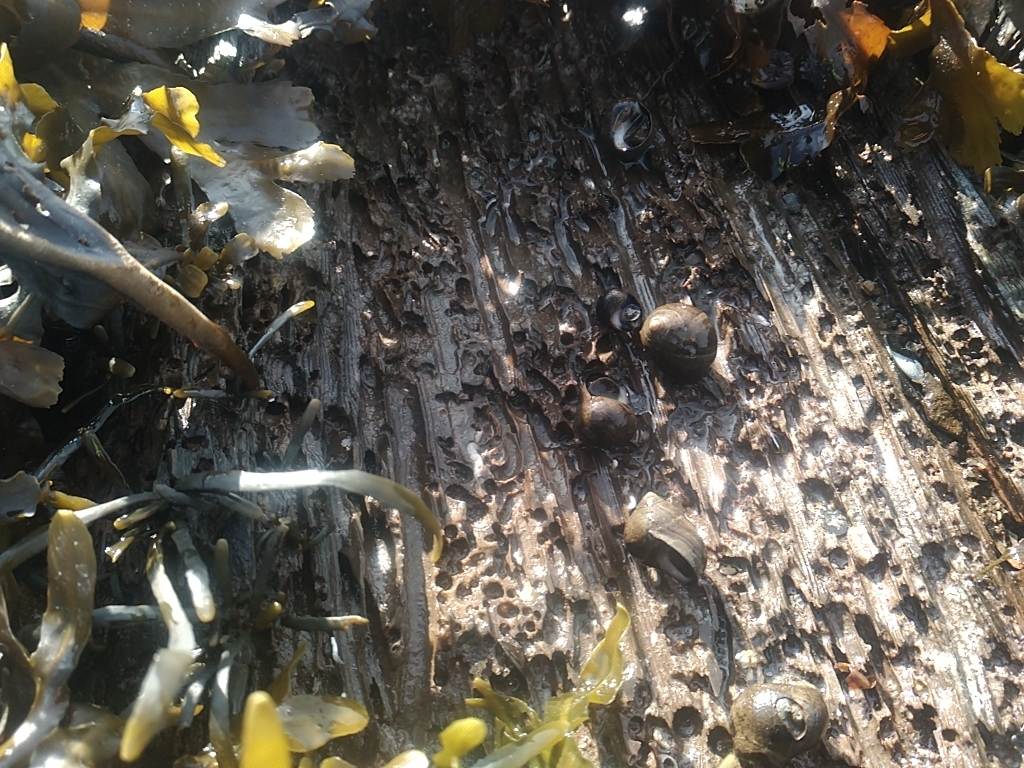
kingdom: Animalia
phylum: Mollusca
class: Gastropoda
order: Littorinimorpha
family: Littorinidae
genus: Littorina
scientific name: Littorina littorea
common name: Common periwinkle
